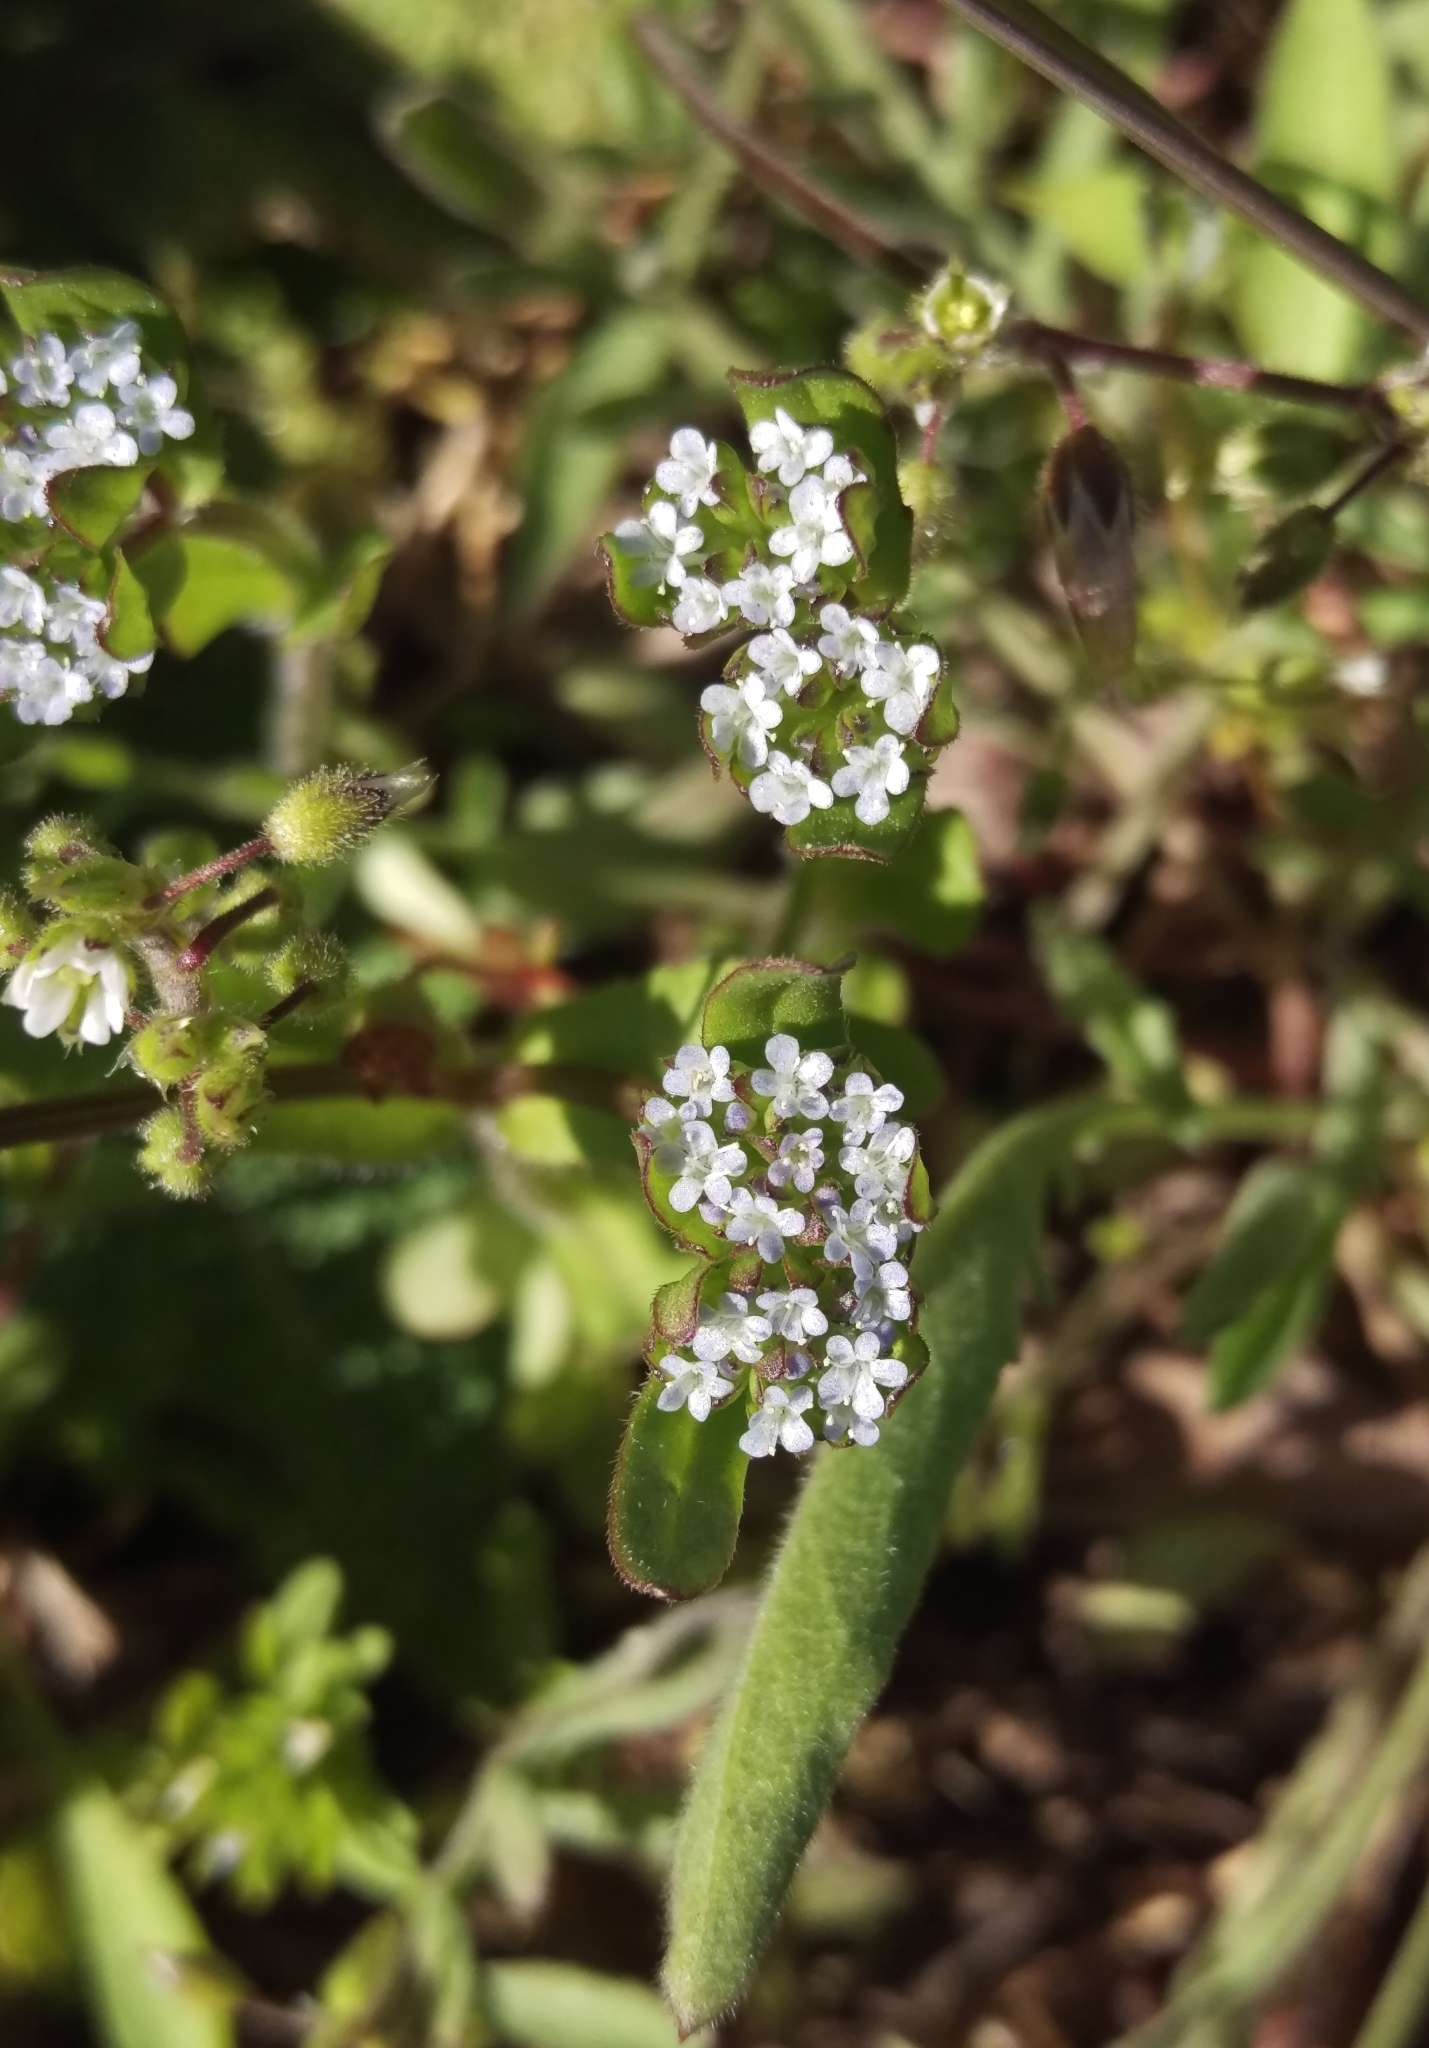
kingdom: Plantae
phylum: Tracheophyta
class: Magnoliopsida
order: Dipsacales
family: Caprifoliaceae
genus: Valerianella
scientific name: Valerianella locusta
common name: Common cornsalad
